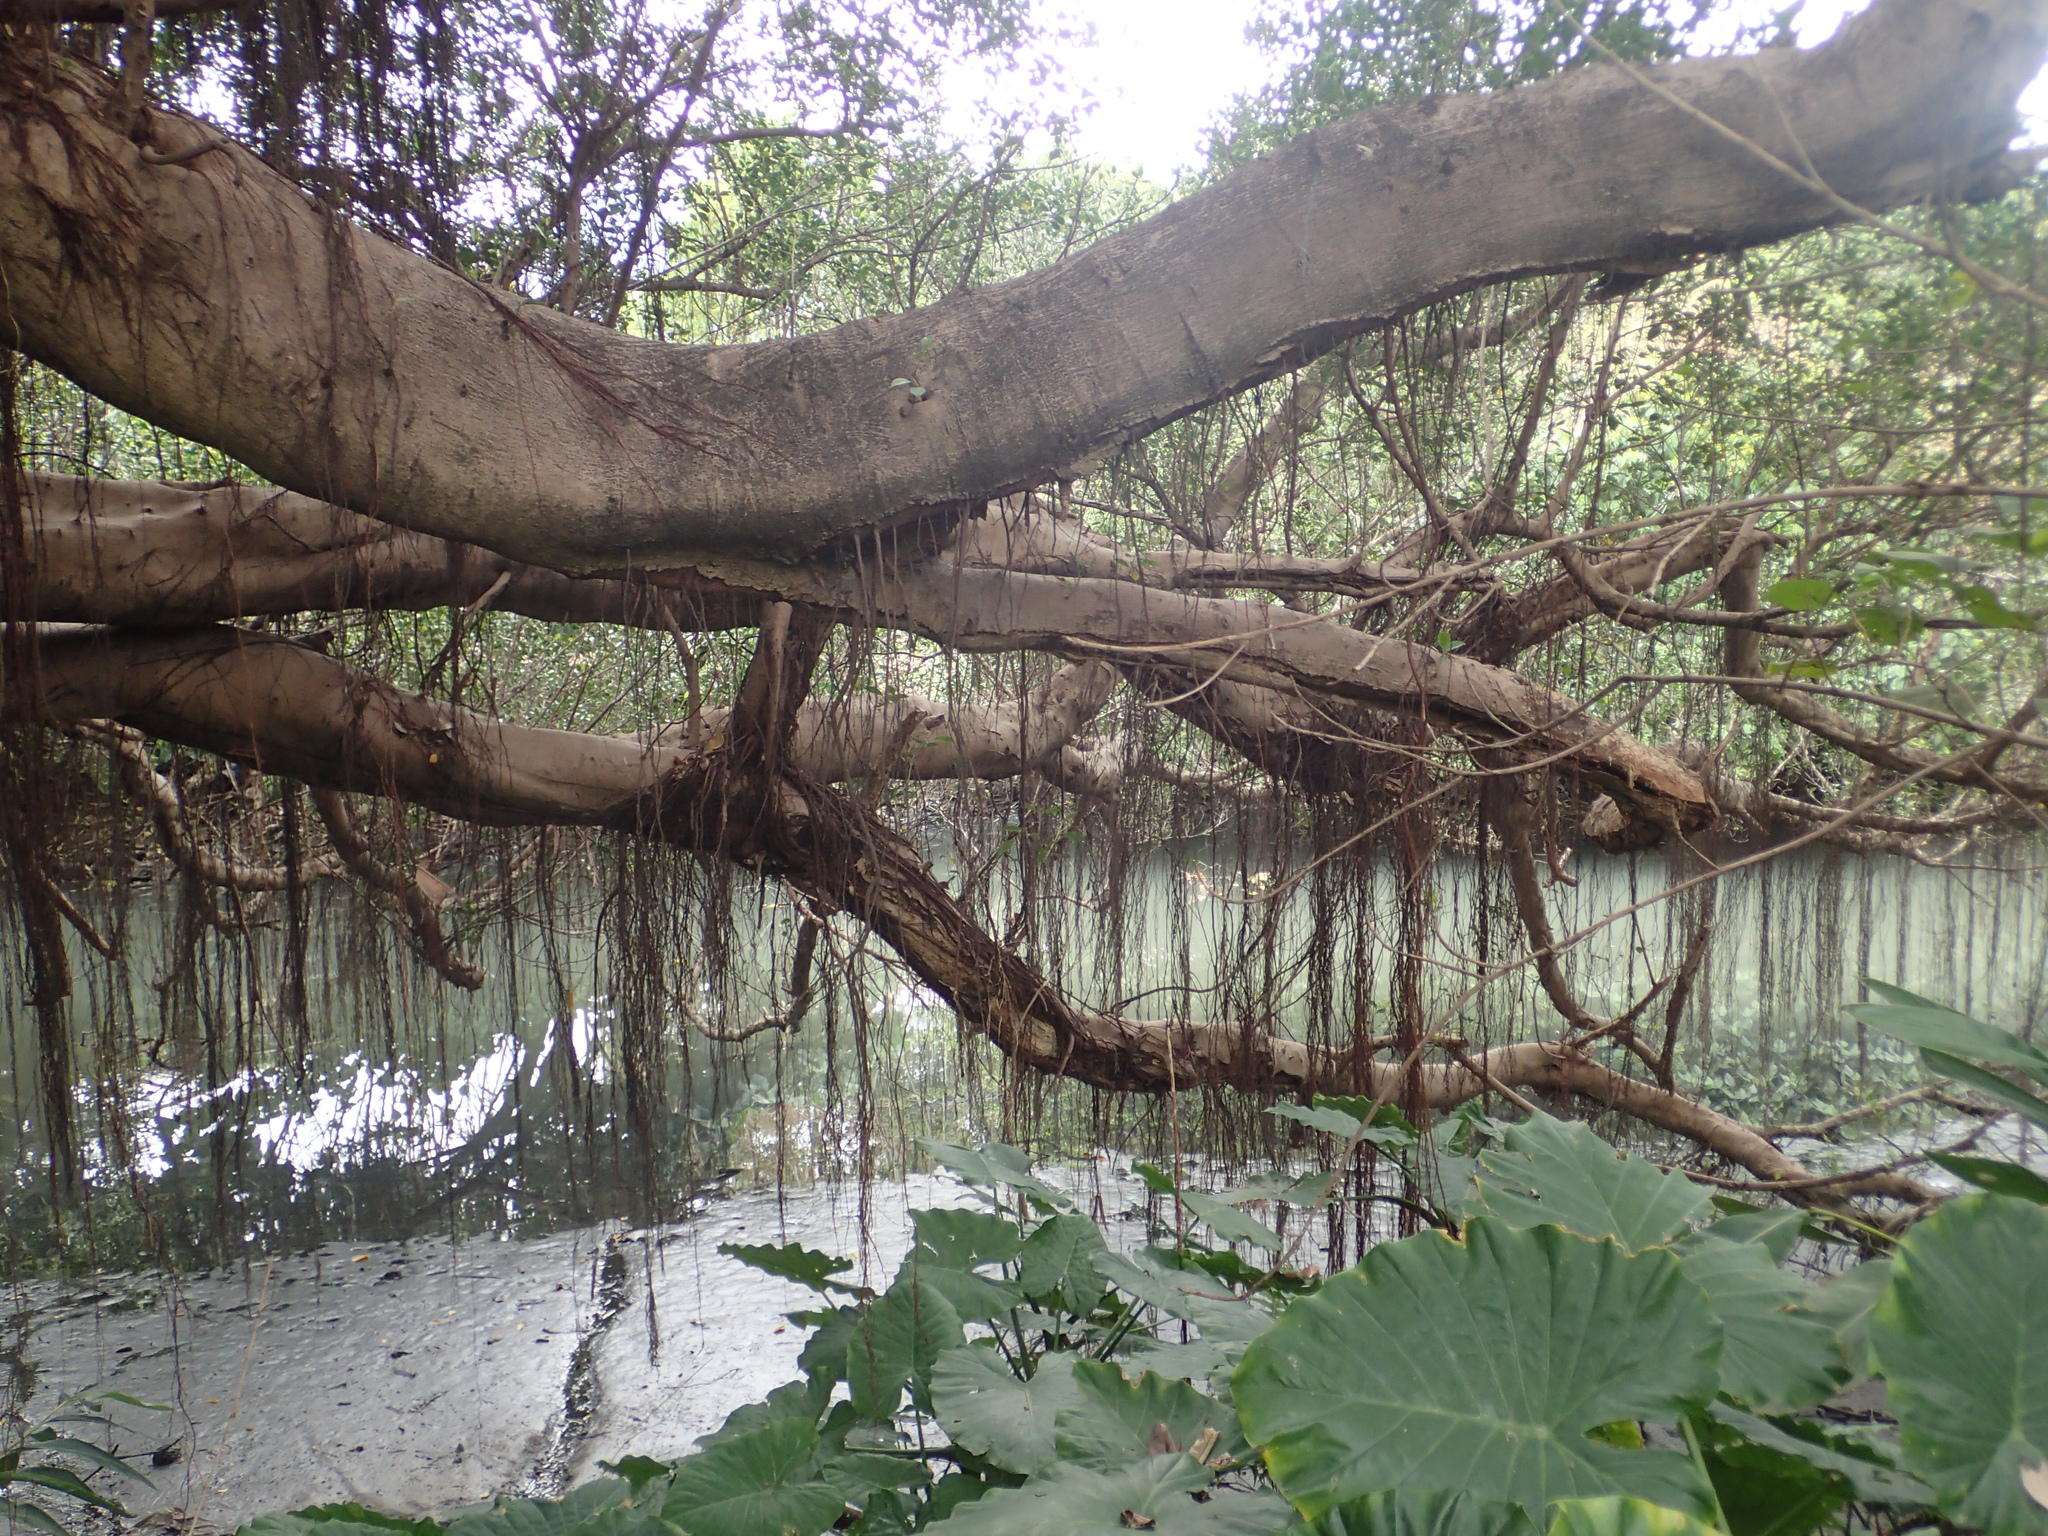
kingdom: Plantae
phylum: Tracheophyta
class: Magnoliopsida
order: Rosales
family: Moraceae
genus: Ficus
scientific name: Ficus microcarpa
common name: Chinese banyan
